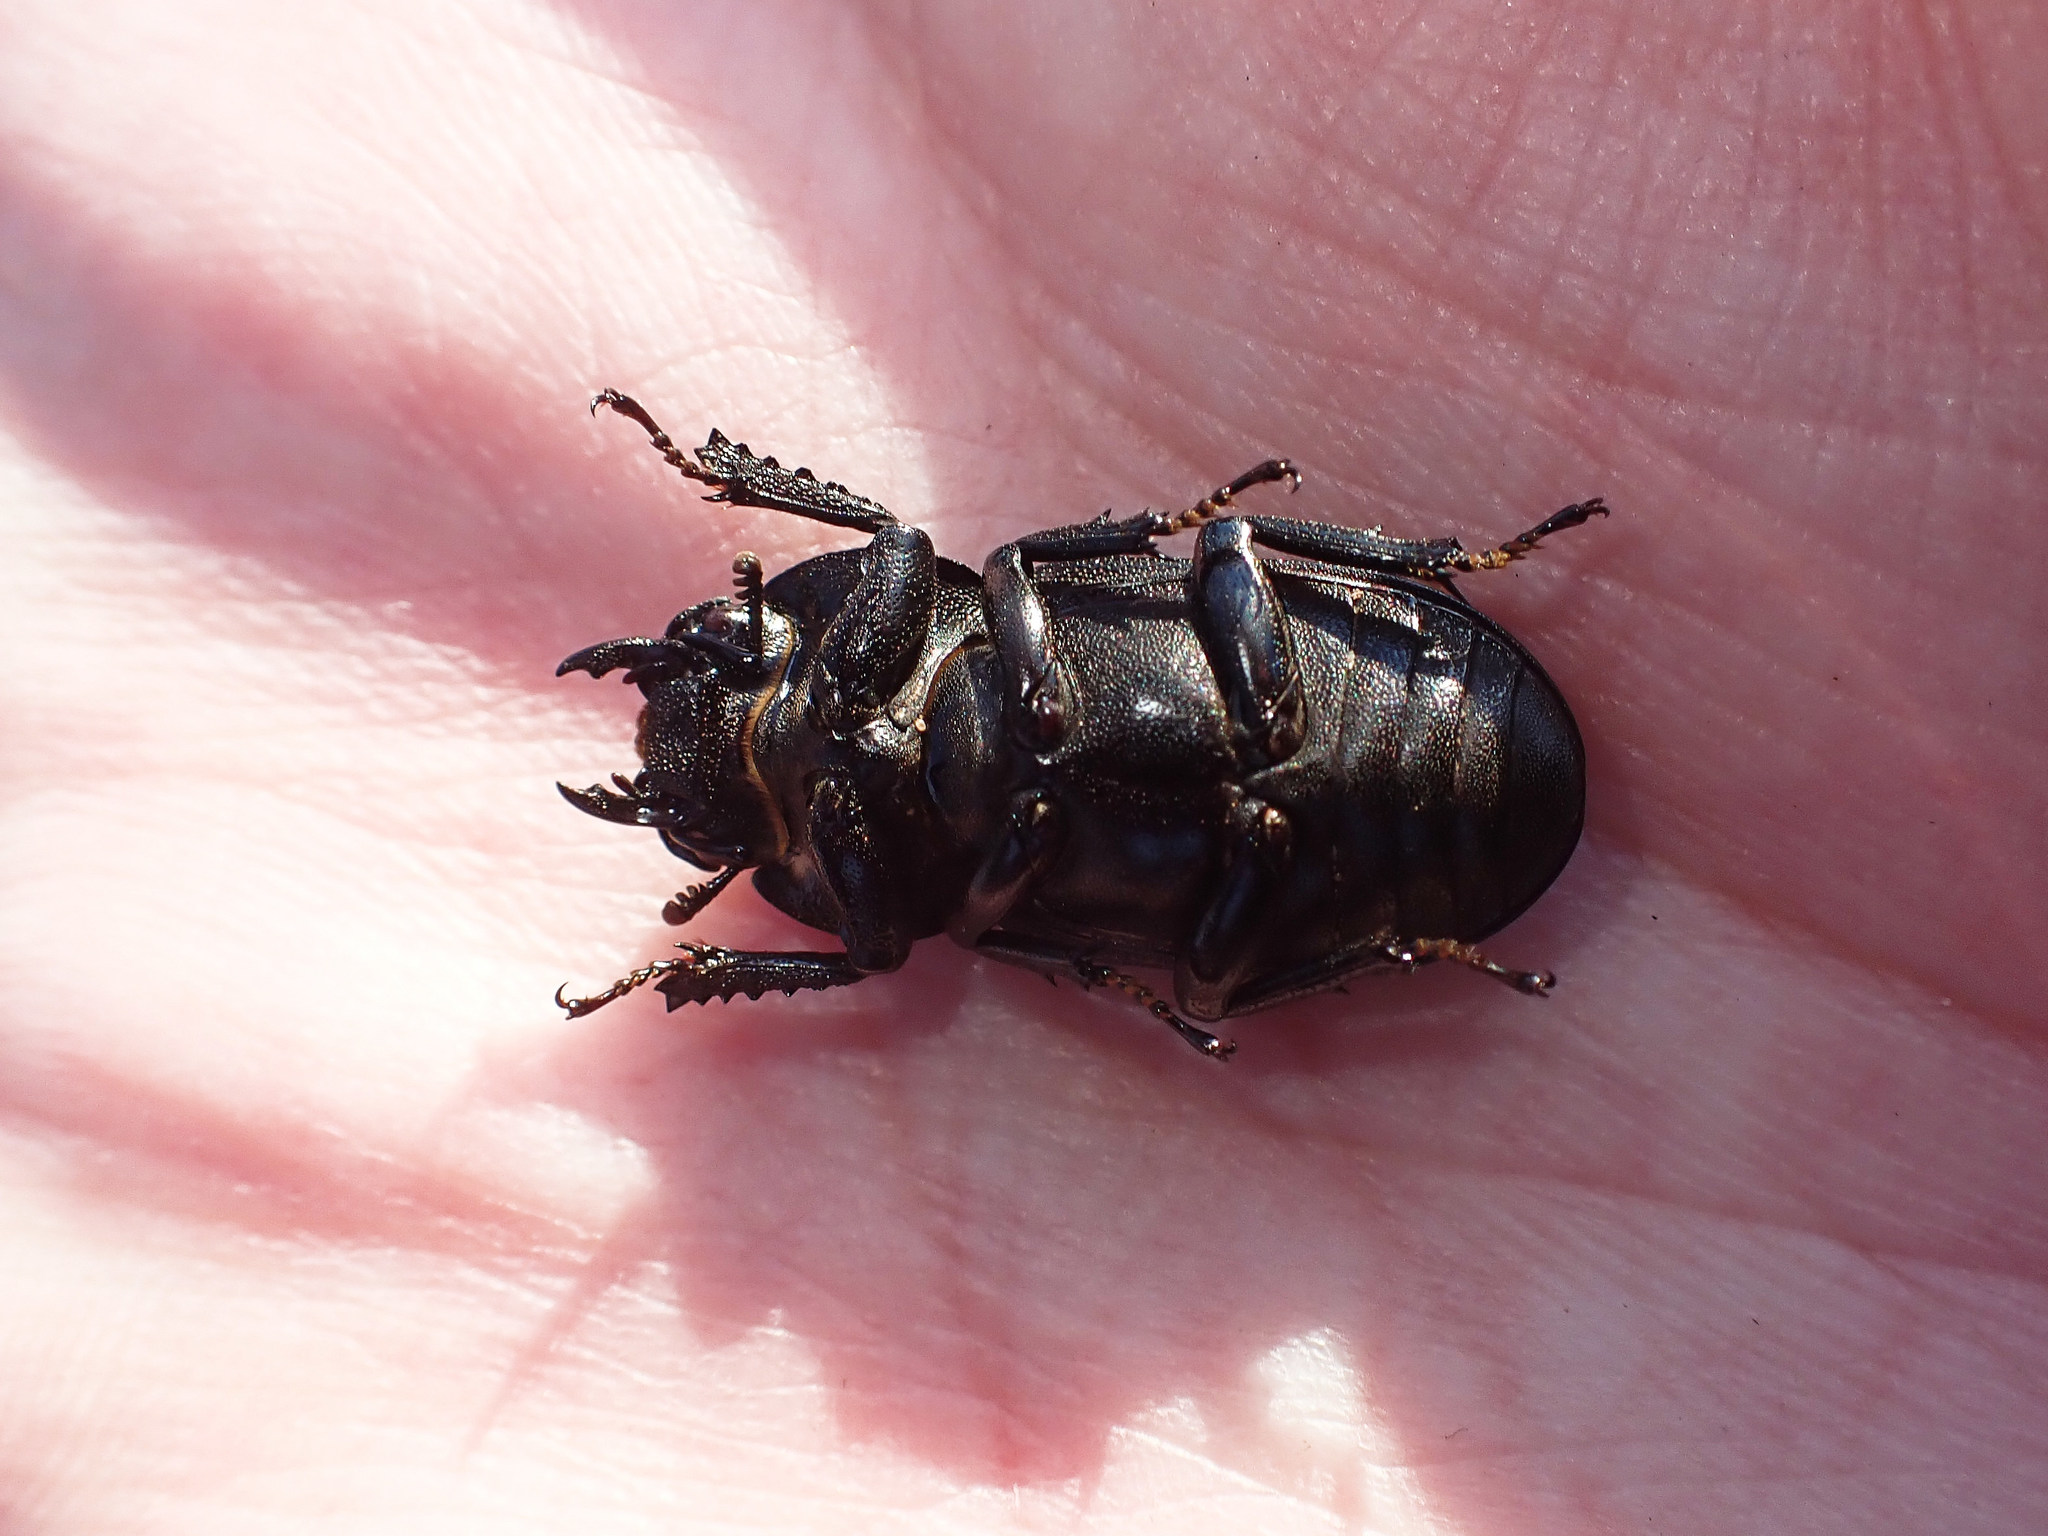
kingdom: Animalia
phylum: Arthropoda
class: Insecta
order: Coleoptera
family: Lucanidae
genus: Dorcus
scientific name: Dorcus parallelipipedus
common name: Lesser stag beetle
